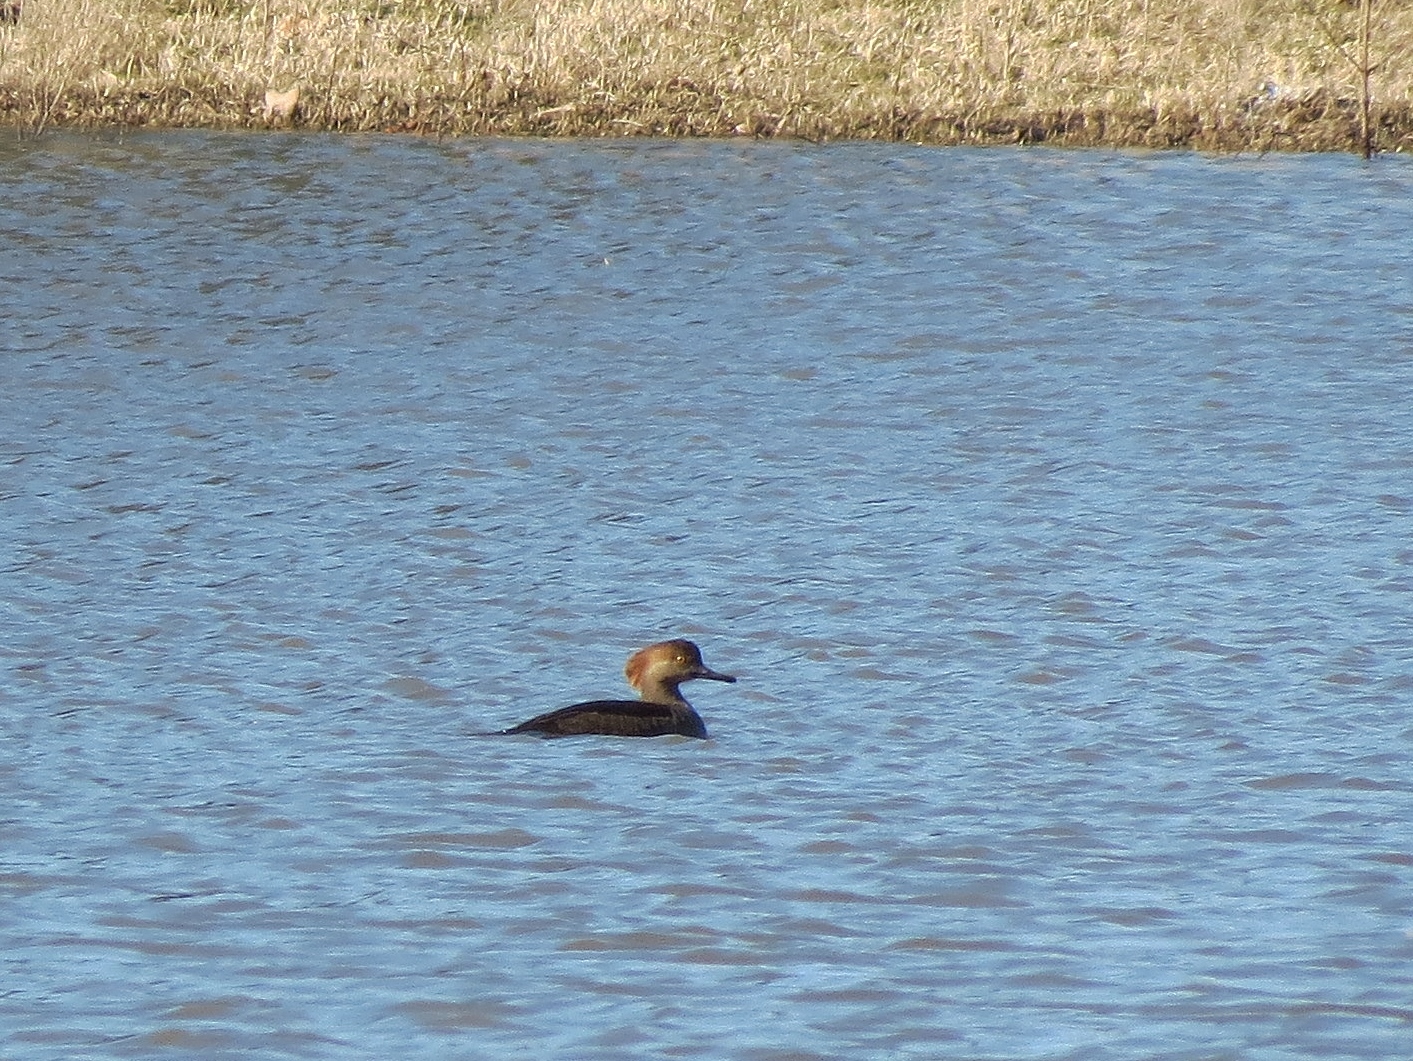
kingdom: Animalia
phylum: Chordata
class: Aves
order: Anseriformes
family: Anatidae
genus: Lophodytes
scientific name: Lophodytes cucullatus
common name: Hooded merganser
